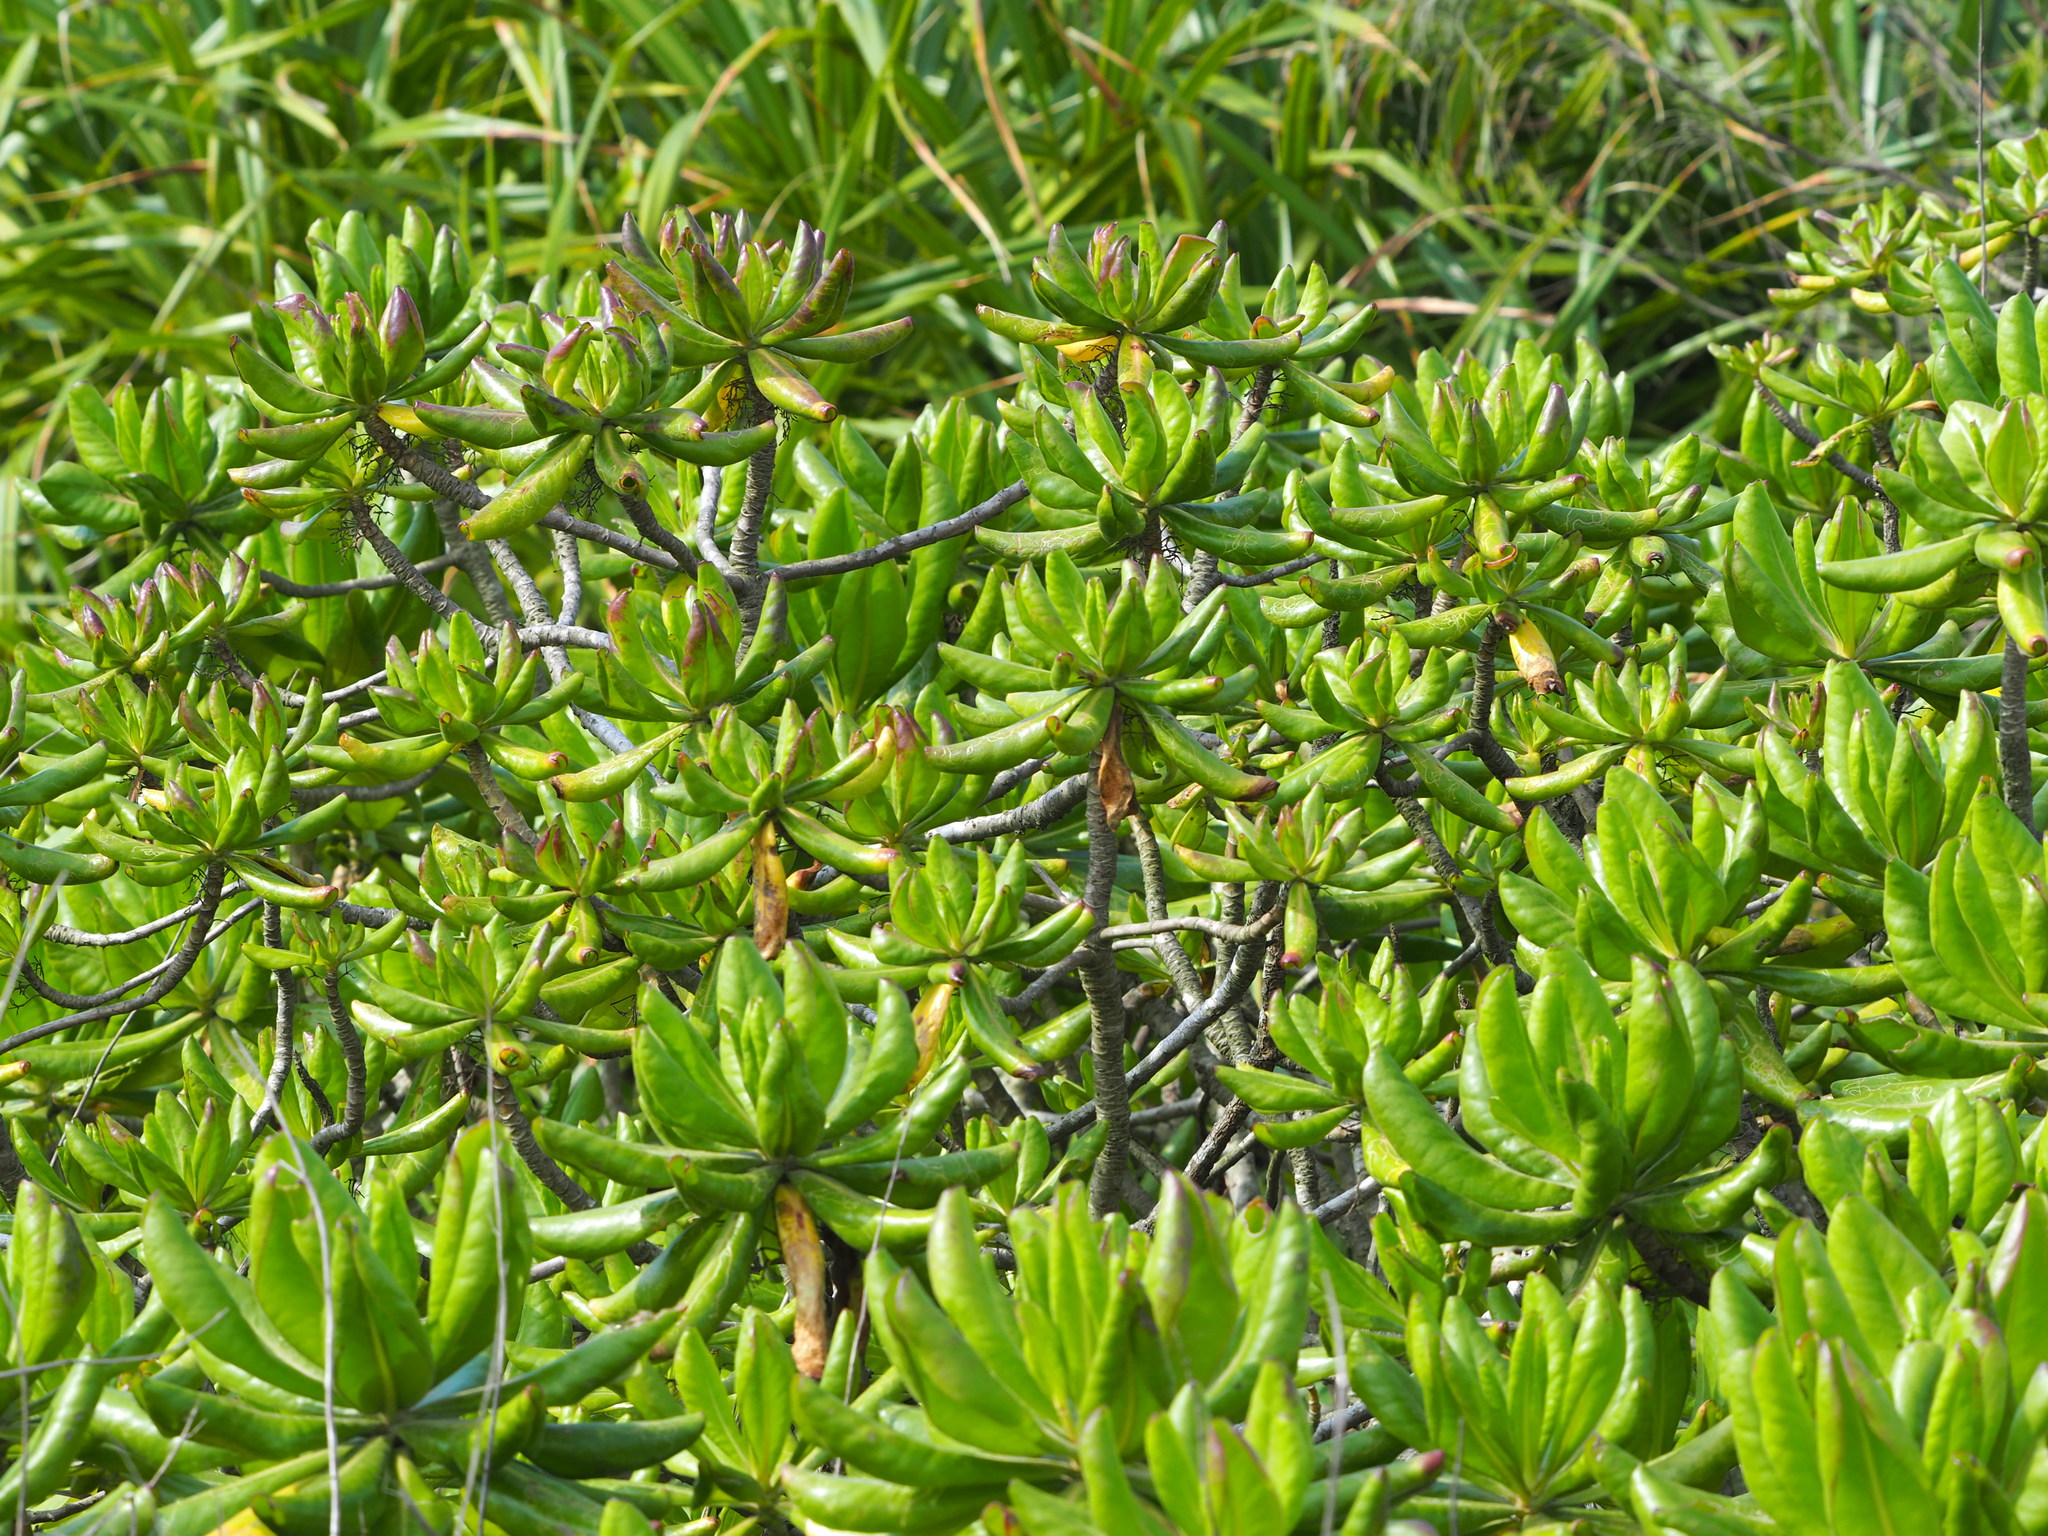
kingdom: Plantae
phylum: Tracheophyta
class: Magnoliopsida
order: Asterales
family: Goodeniaceae
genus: Scaevola
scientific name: Scaevola taccada
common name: Sea lettucetree
